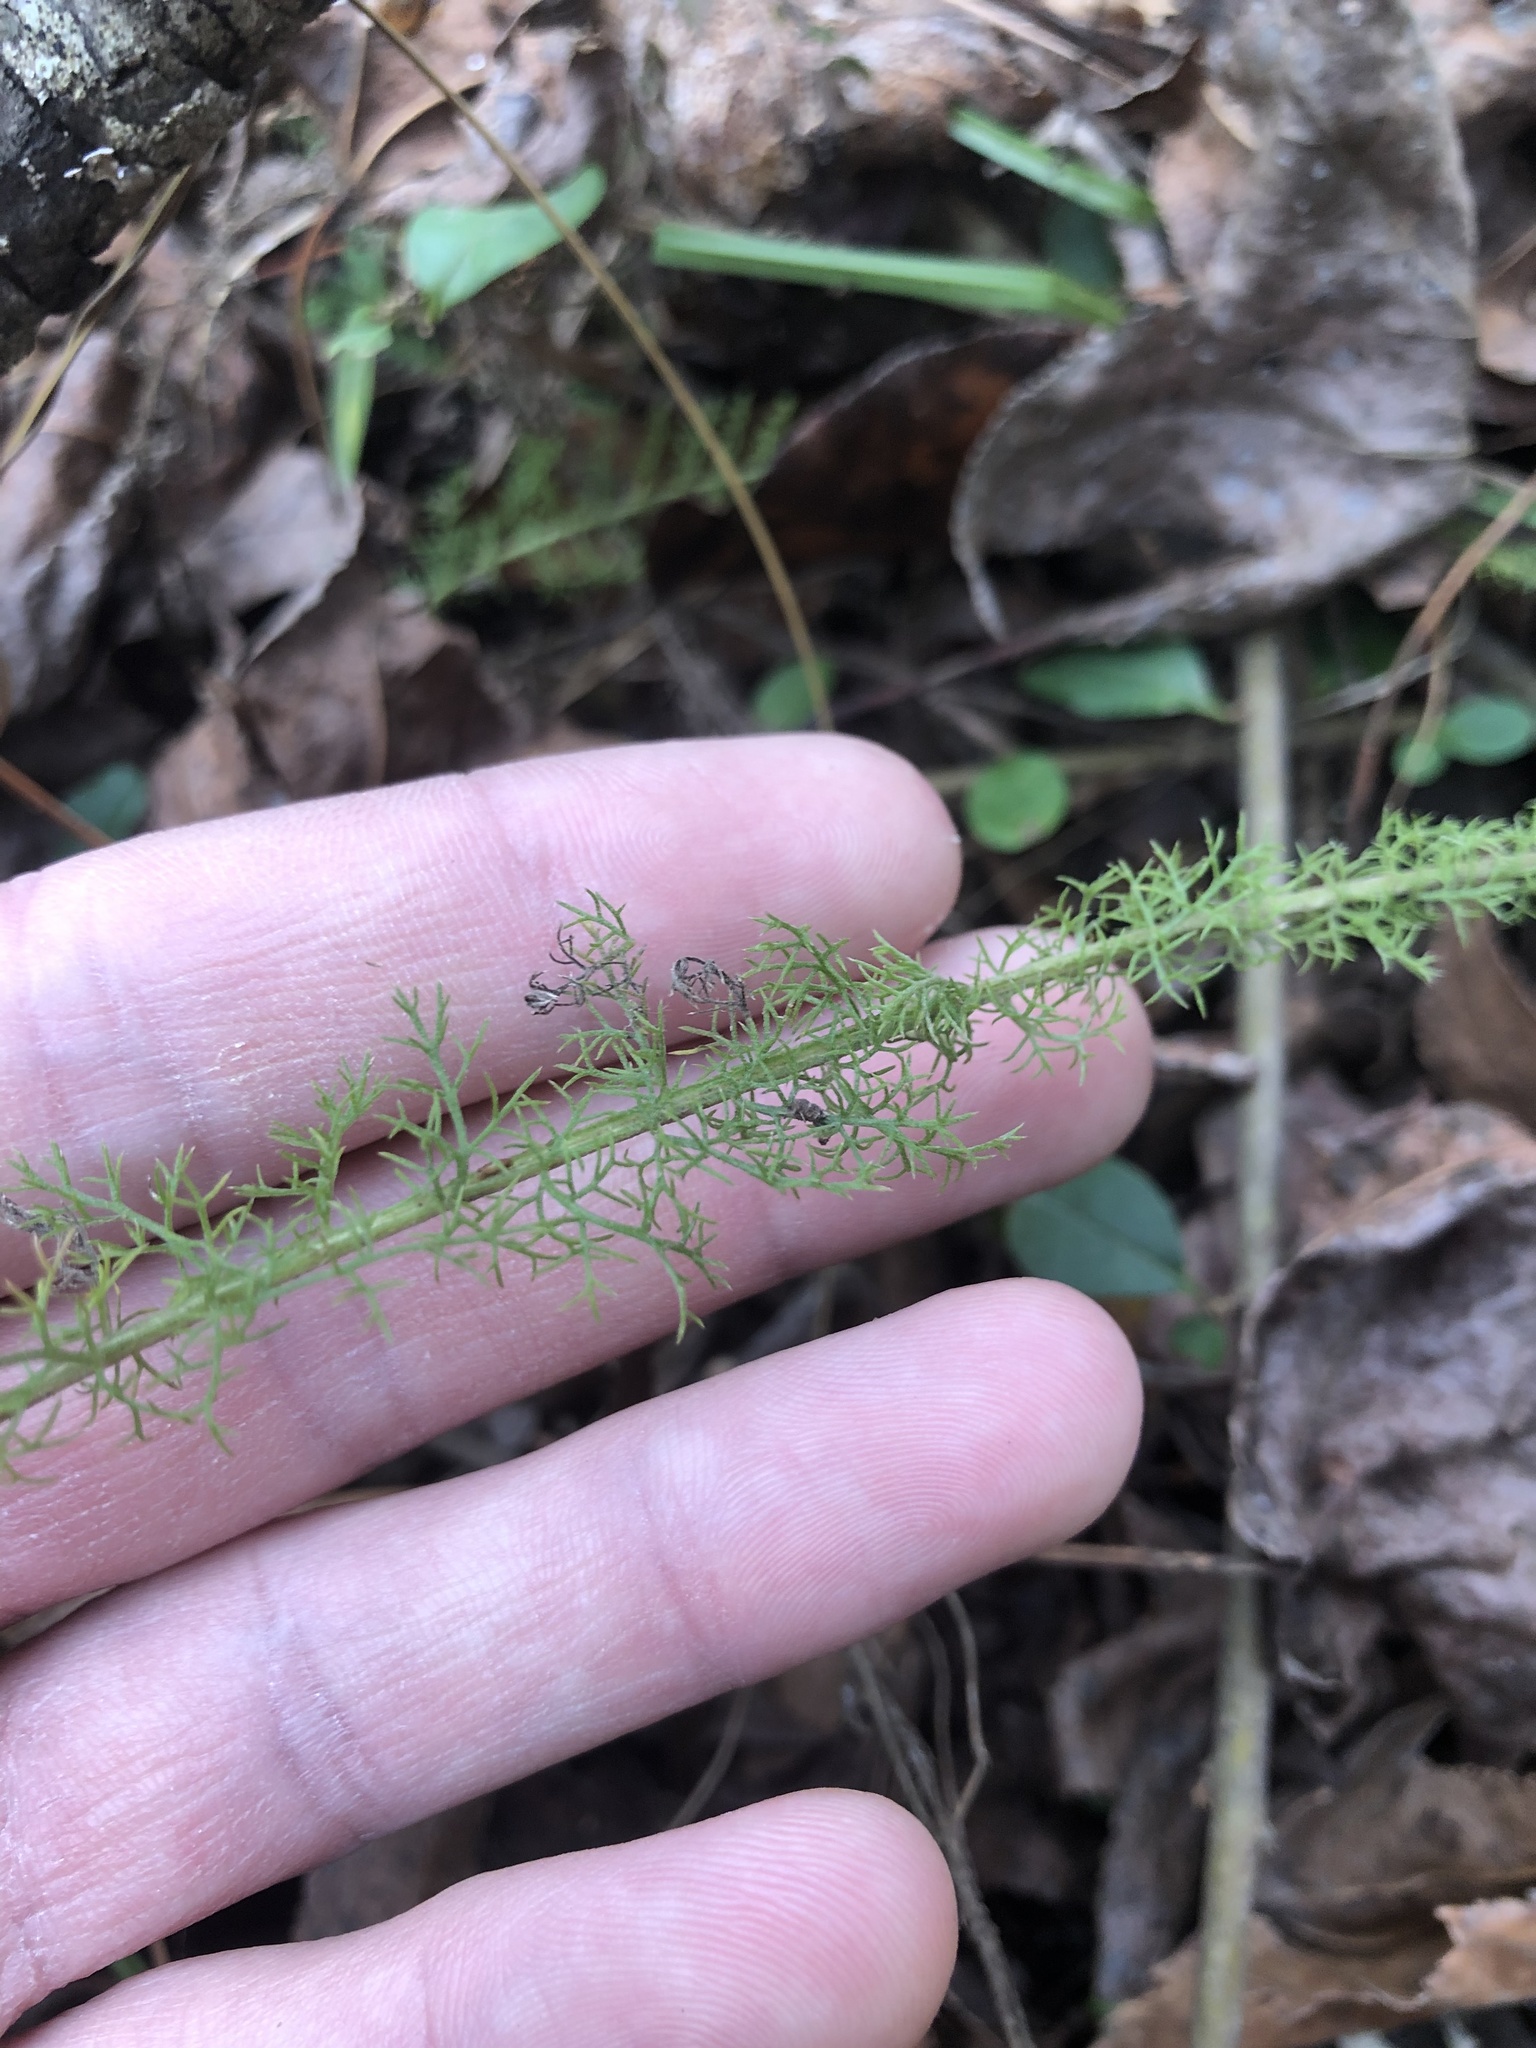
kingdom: Plantae
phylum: Tracheophyta
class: Magnoliopsida
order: Asterales
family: Asteraceae
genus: Achillea
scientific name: Achillea millefolium
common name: Yarrow
